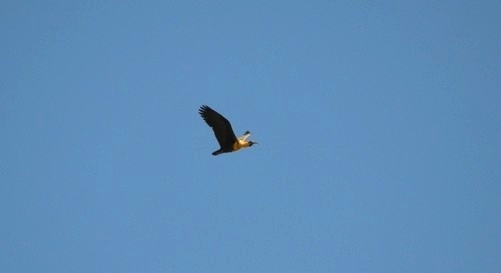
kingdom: Animalia
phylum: Chordata
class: Aves
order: Pelecaniformes
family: Threskiornithidae
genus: Theristicus
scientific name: Theristicus melanopis
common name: Black-faced ibis
